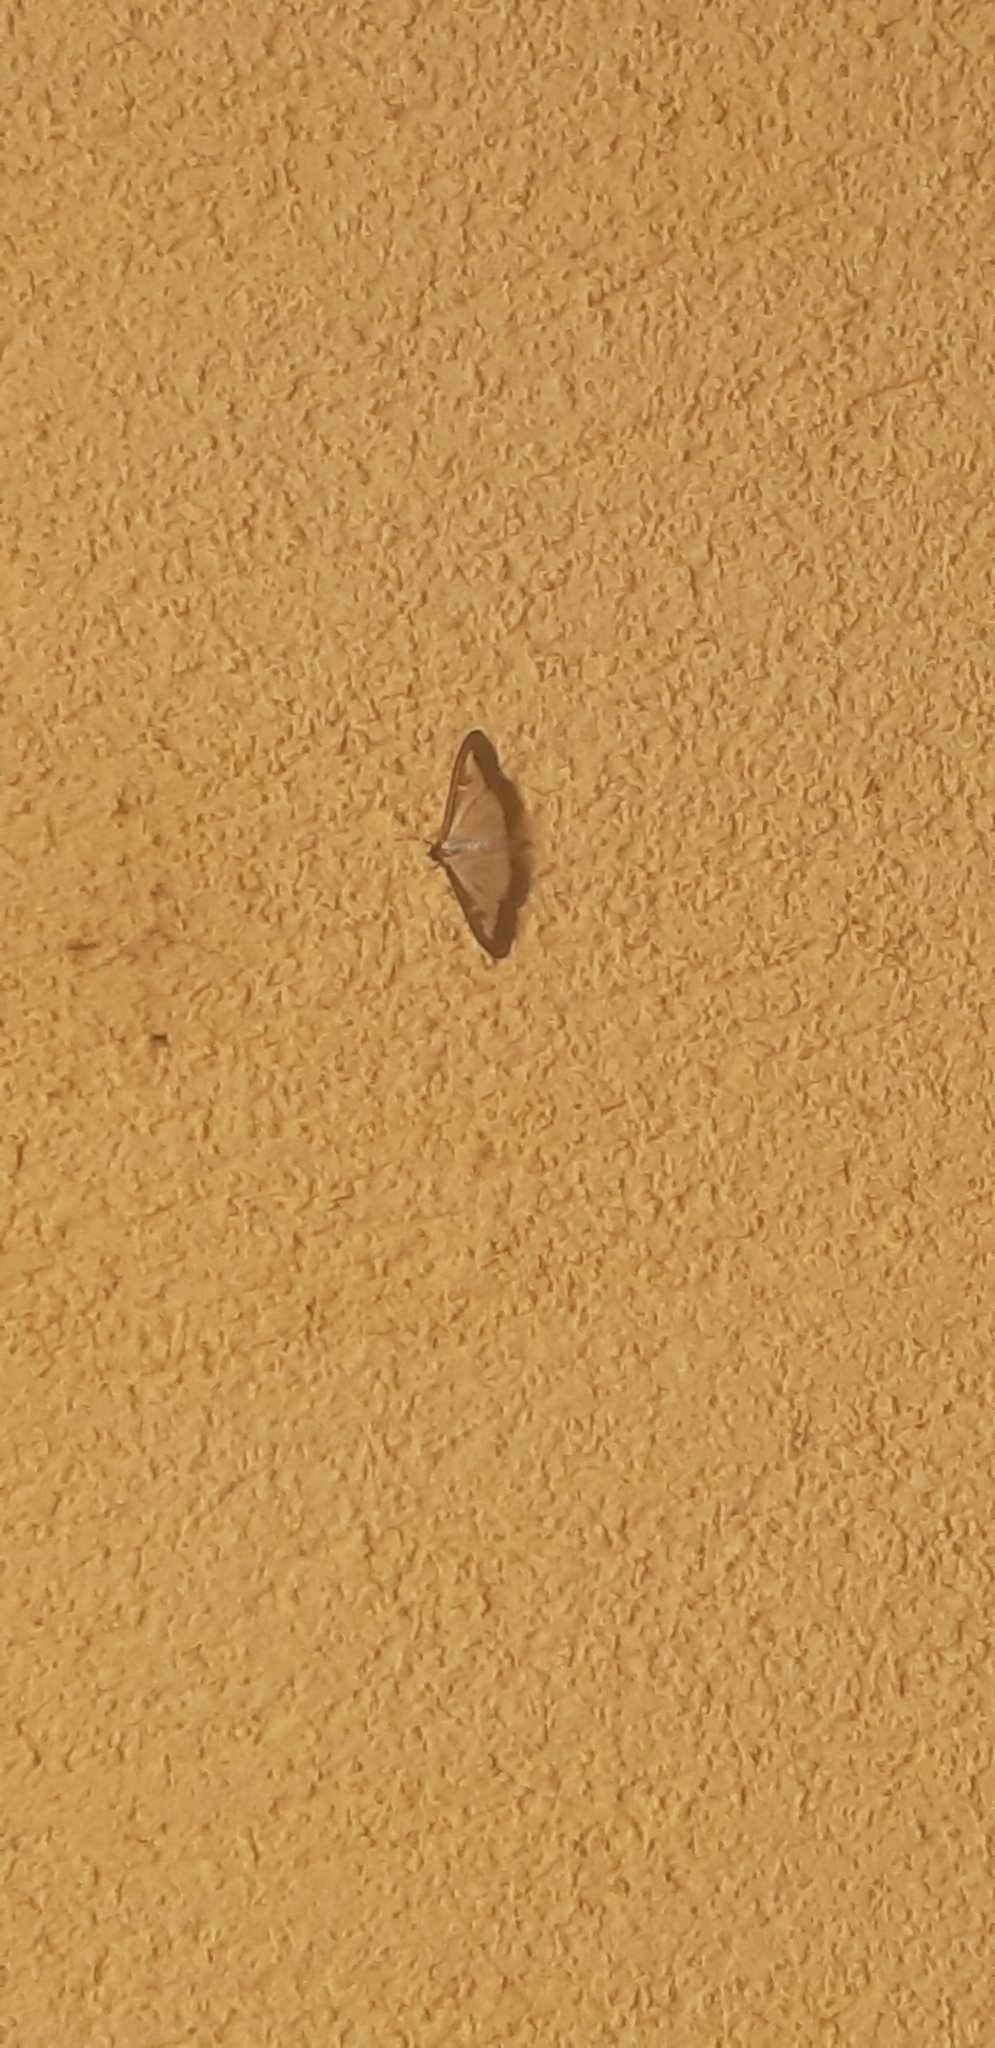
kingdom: Animalia
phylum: Arthropoda
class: Insecta
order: Lepidoptera
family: Crambidae
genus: Cydalima
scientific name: Cydalima perspectalis
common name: Box tree moth
